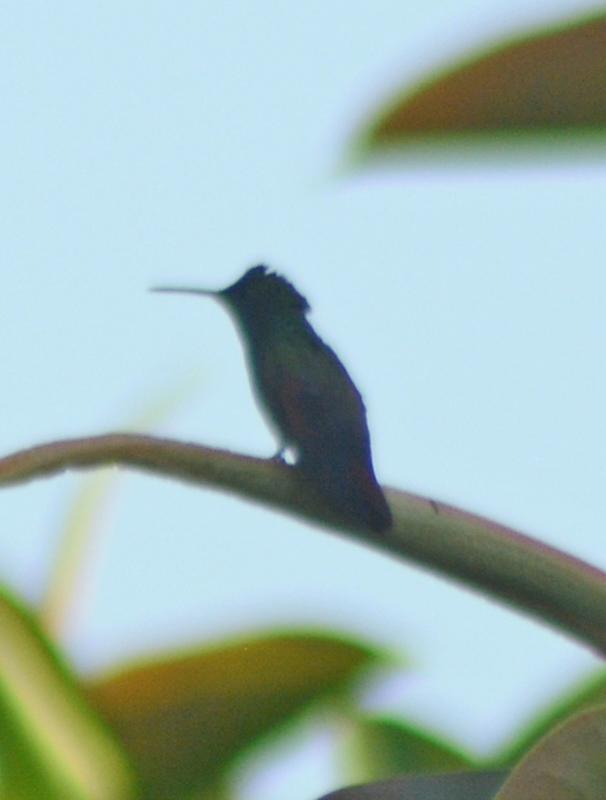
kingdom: Animalia
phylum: Chordata
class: Aves
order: Apodiformes
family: Trochilidae
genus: Saucerottia
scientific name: Saucerottia beryllina
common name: Berylline hummingbird
